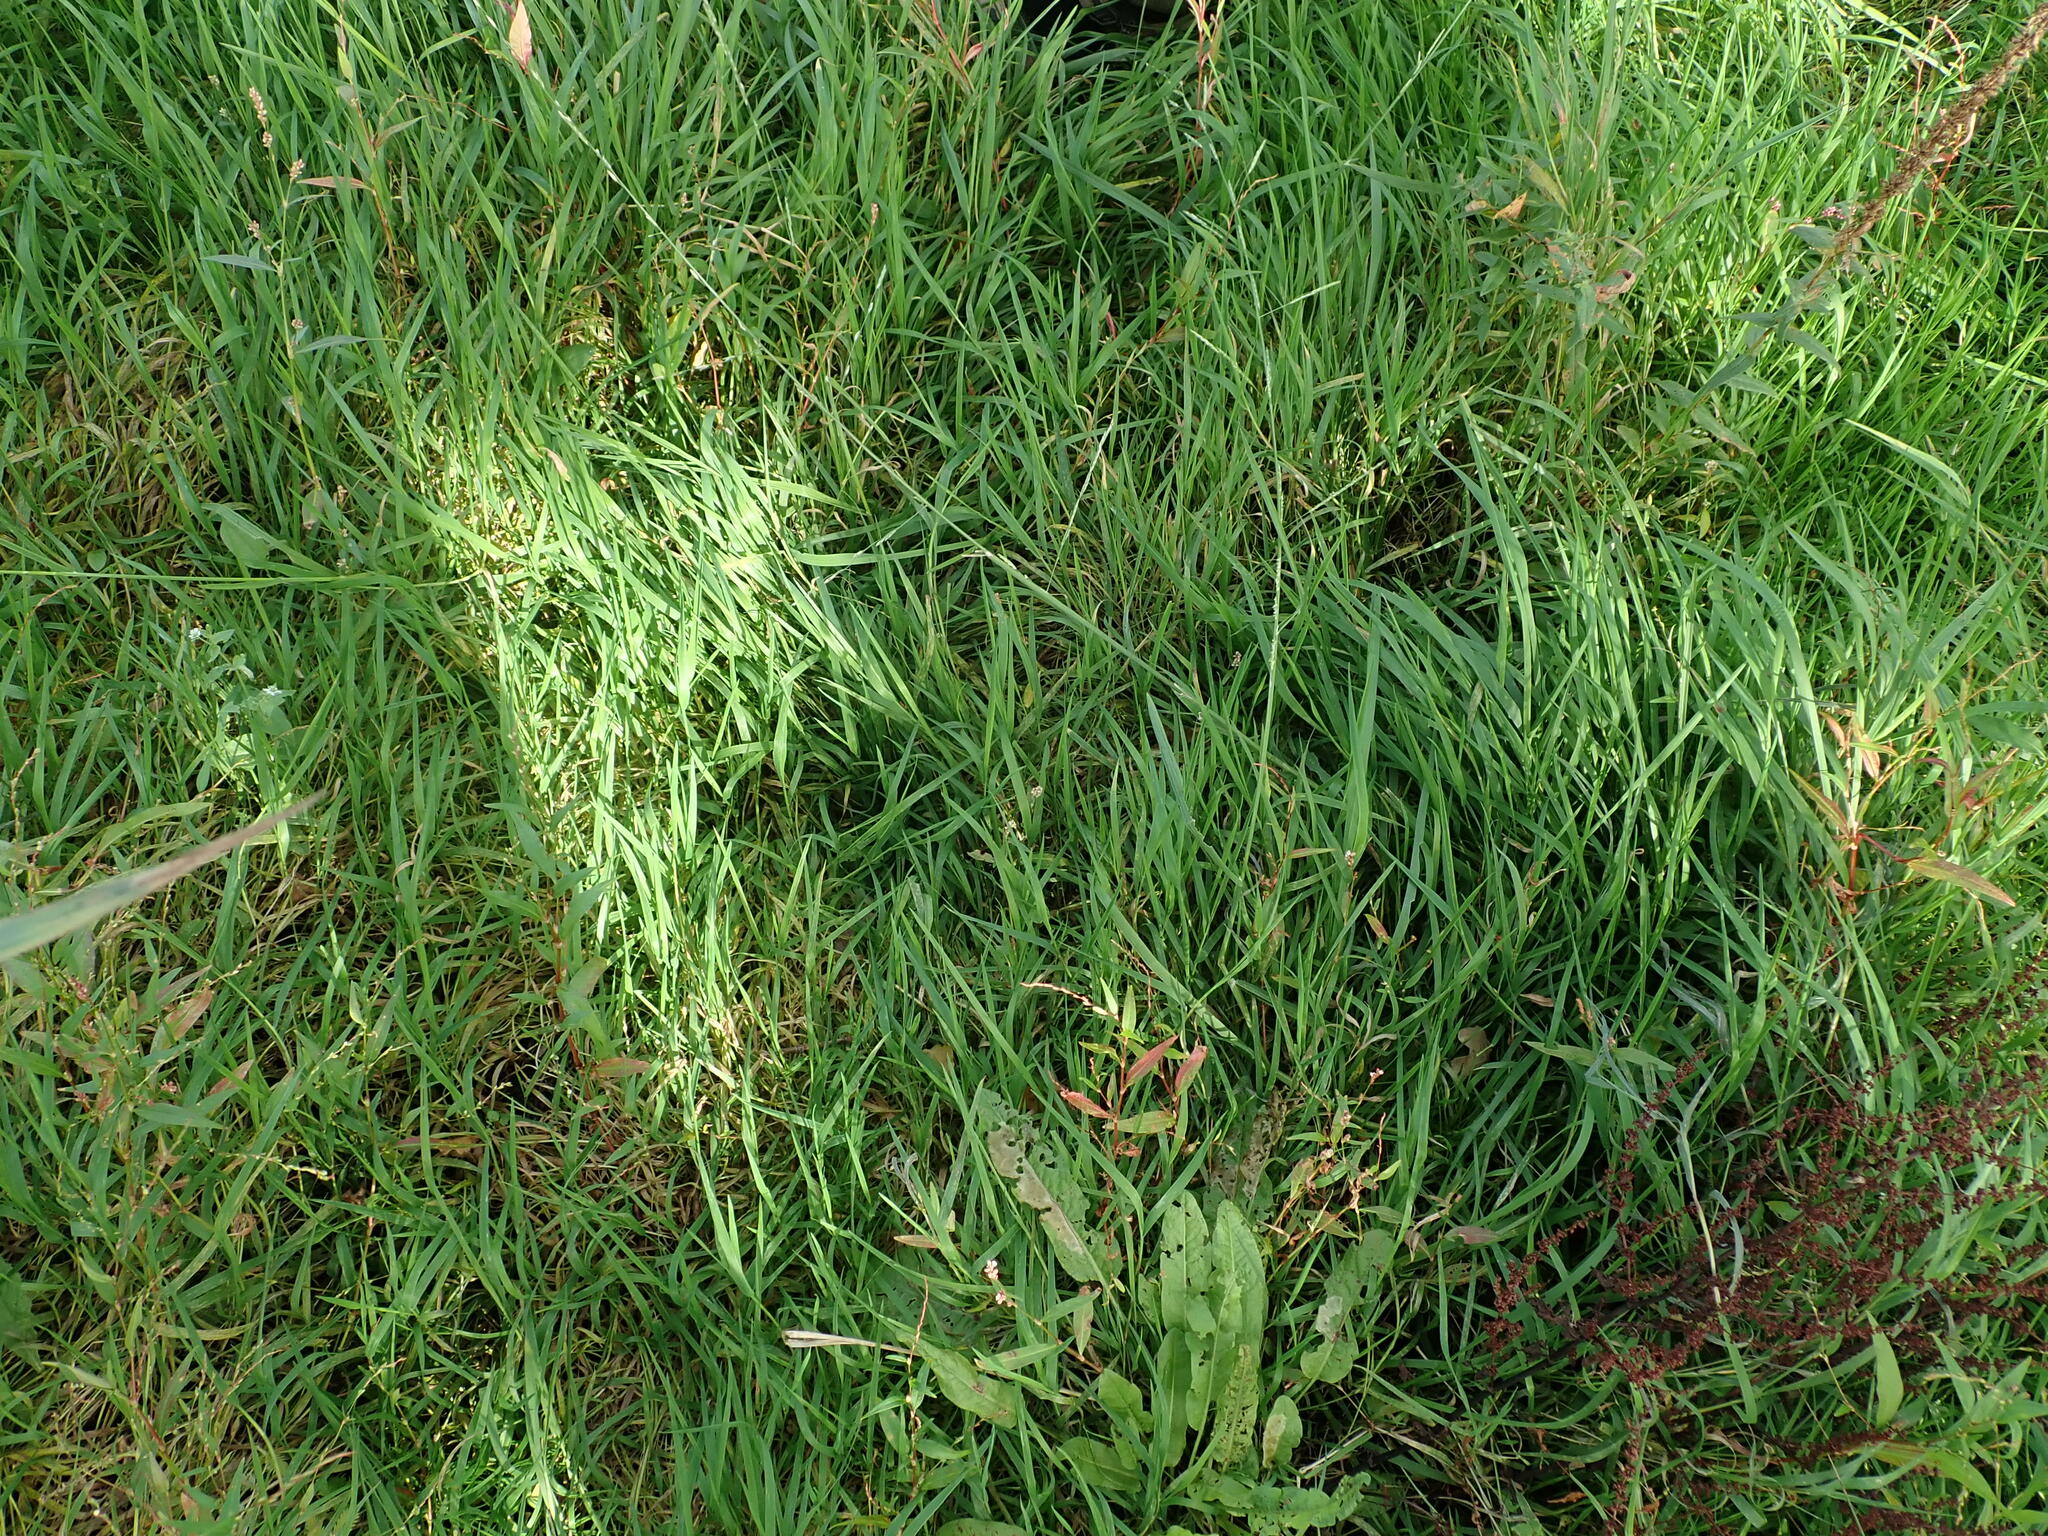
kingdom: Plantae
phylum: Tracheophyta
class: Liliopsida
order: Poales
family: Poaceae
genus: Glyceria
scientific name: Glyceria fluitans
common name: Floating sweet-grass
